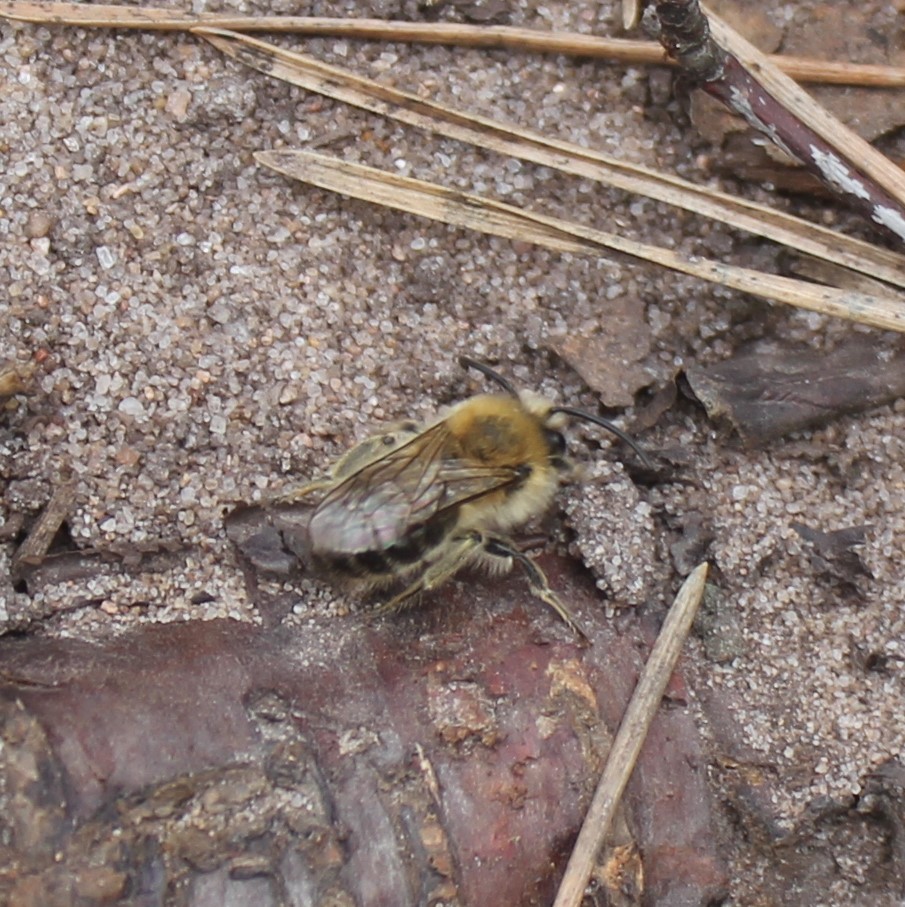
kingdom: Animalia
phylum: Arthropoda
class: Insecta
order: Hymenoptera
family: Colletidae
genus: Colletes
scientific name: Colletes cunicularius
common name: Early colletes
